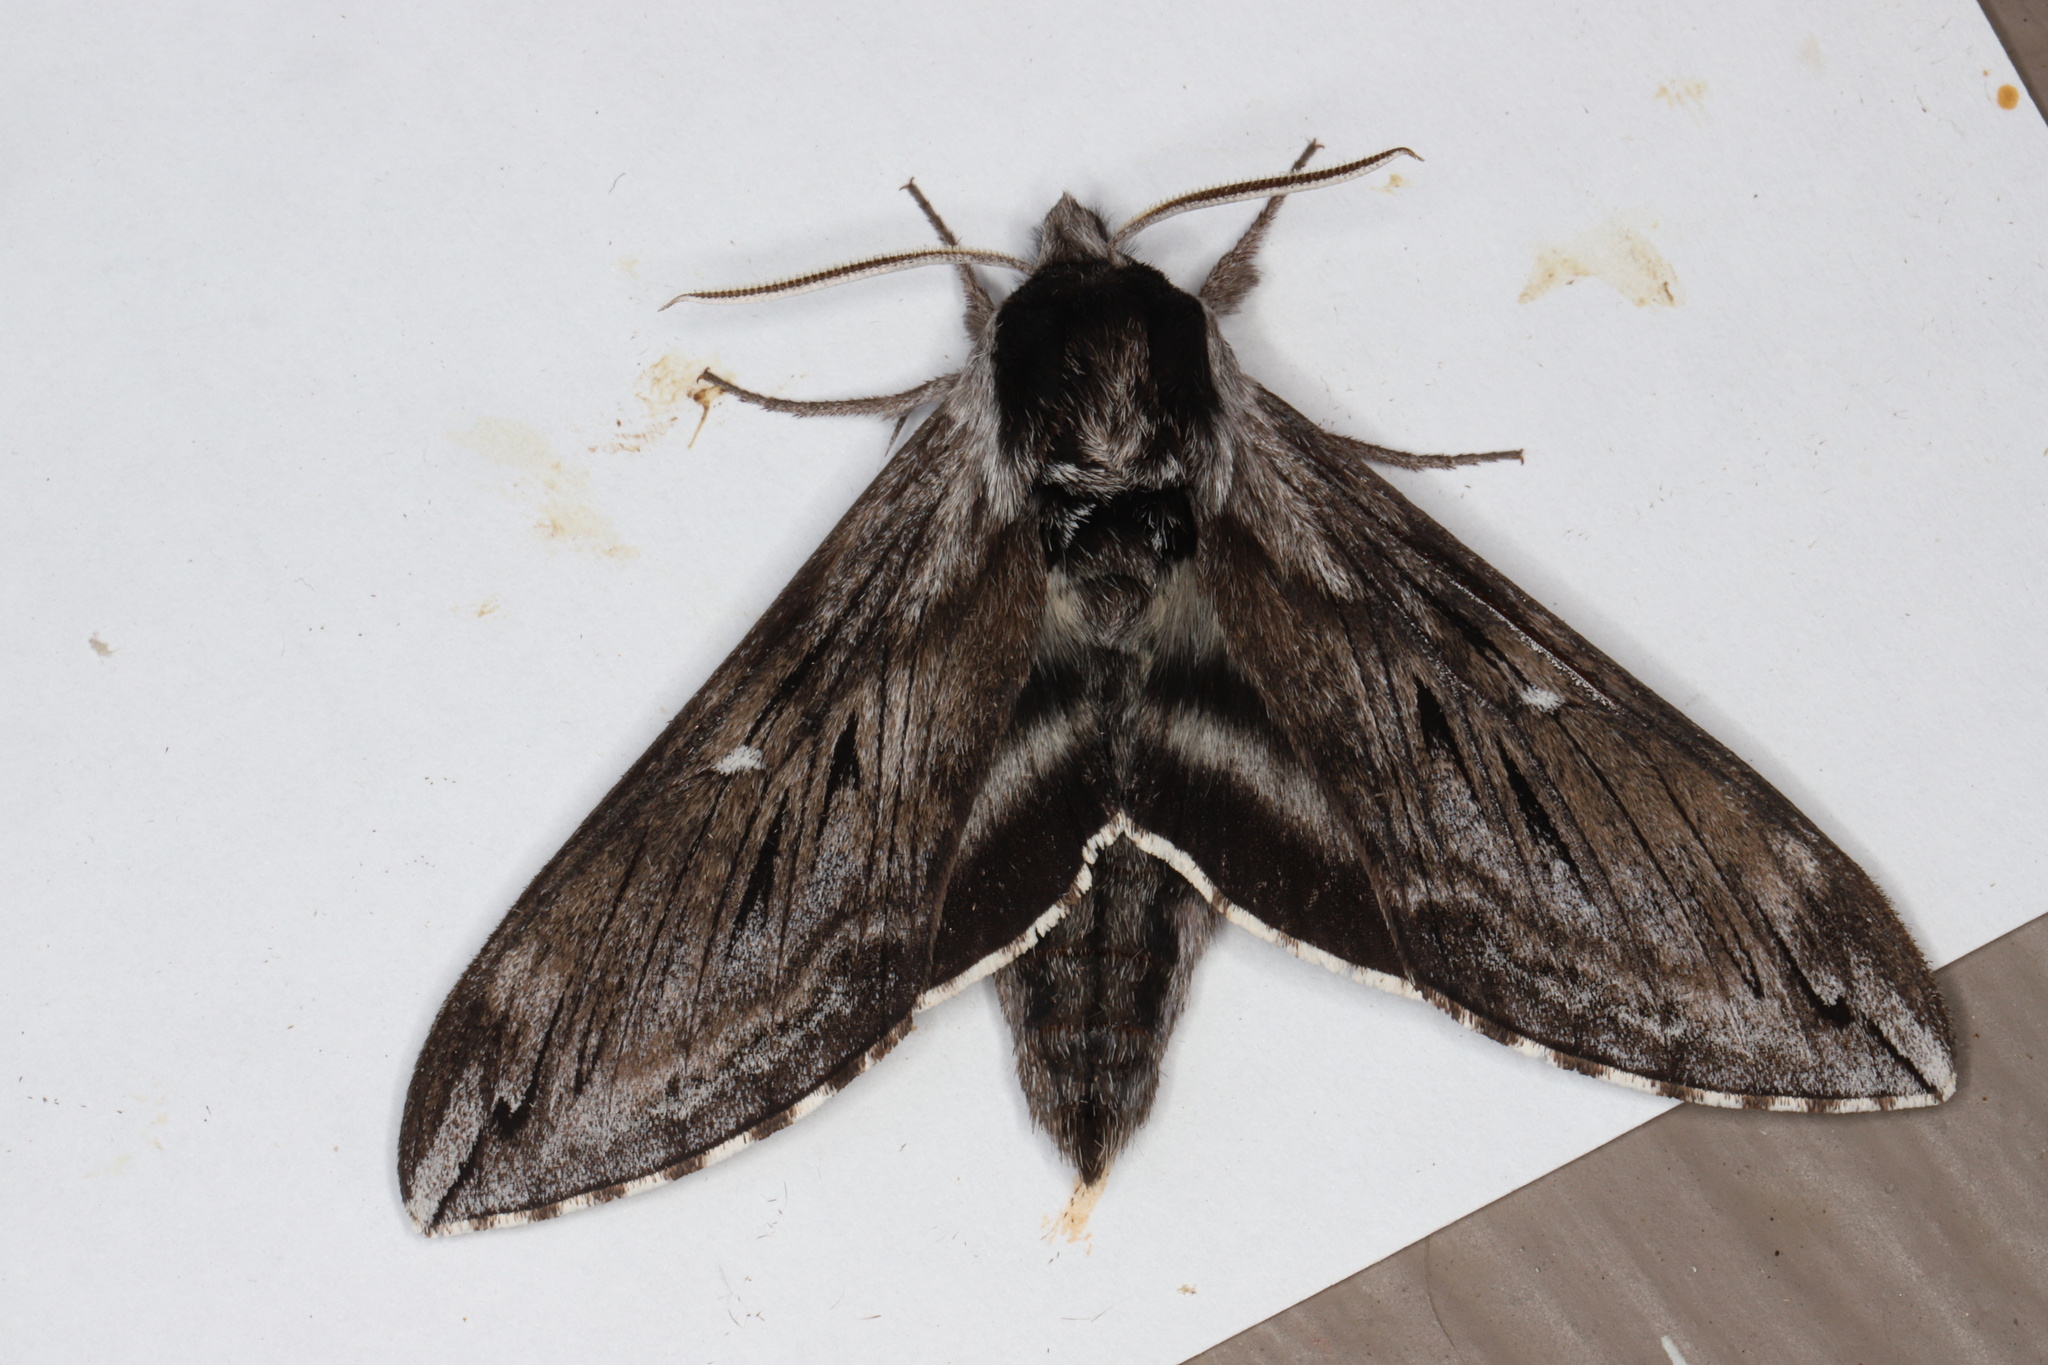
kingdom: Animalia
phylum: Arthropoda
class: Insecta
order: Lepidoptera
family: Sphingidae
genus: Sphinx
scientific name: Sphinx poecila
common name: Northern apple sphinx
